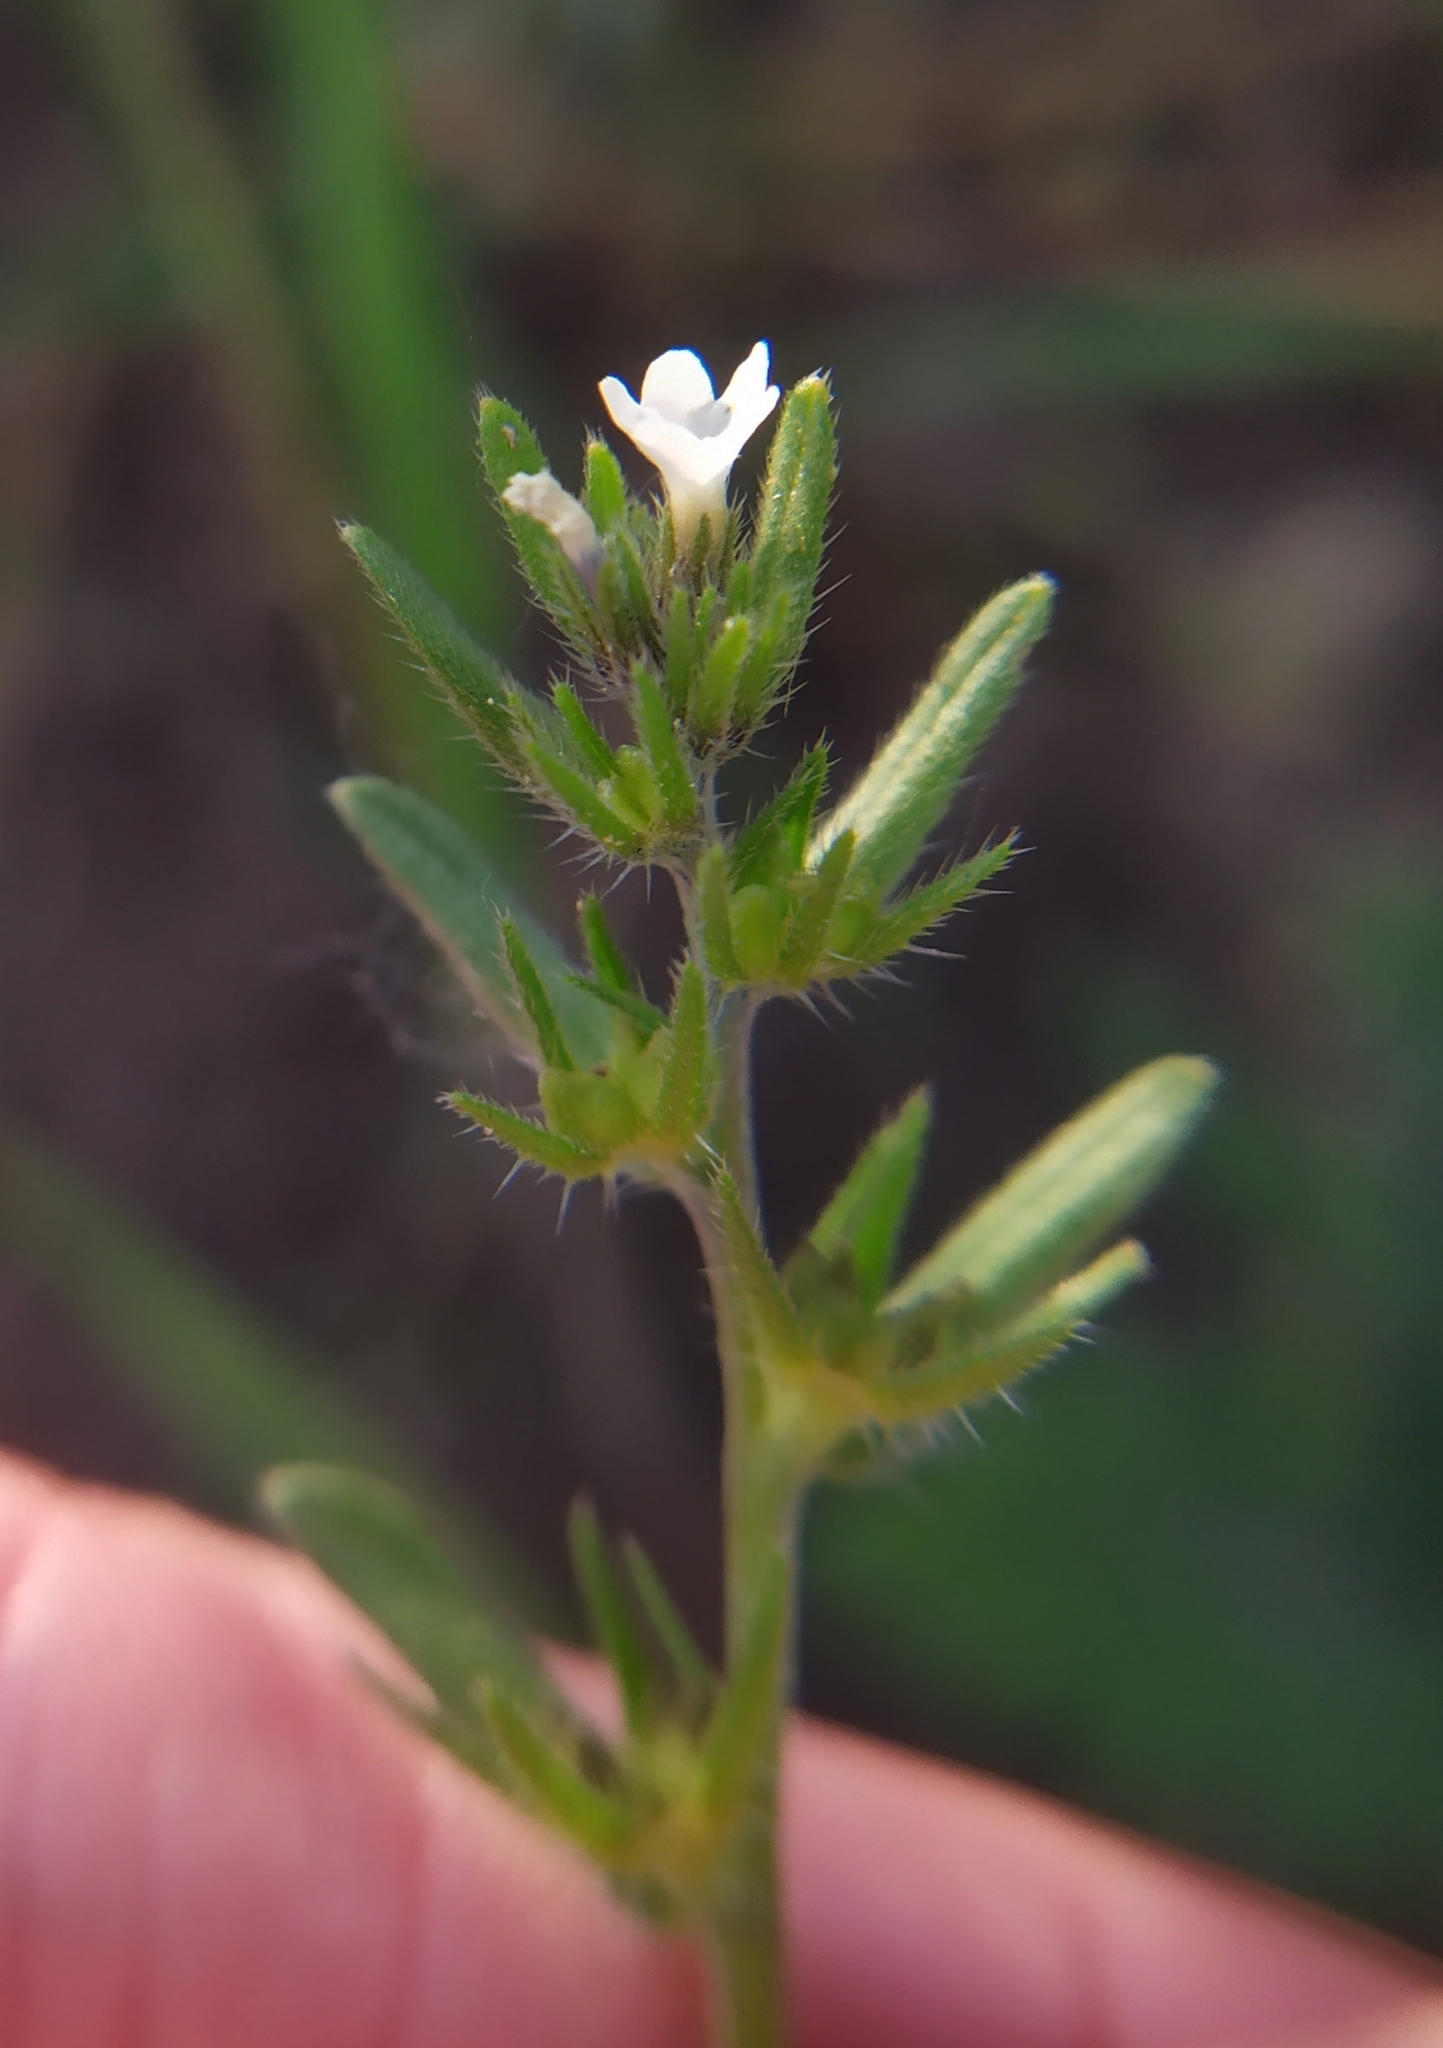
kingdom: Plantae
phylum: Tracheophyta
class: Magnoliopsida
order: Boraginales
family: Boraginaceae
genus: Buglossoides
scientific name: Buglossoides incrassata
